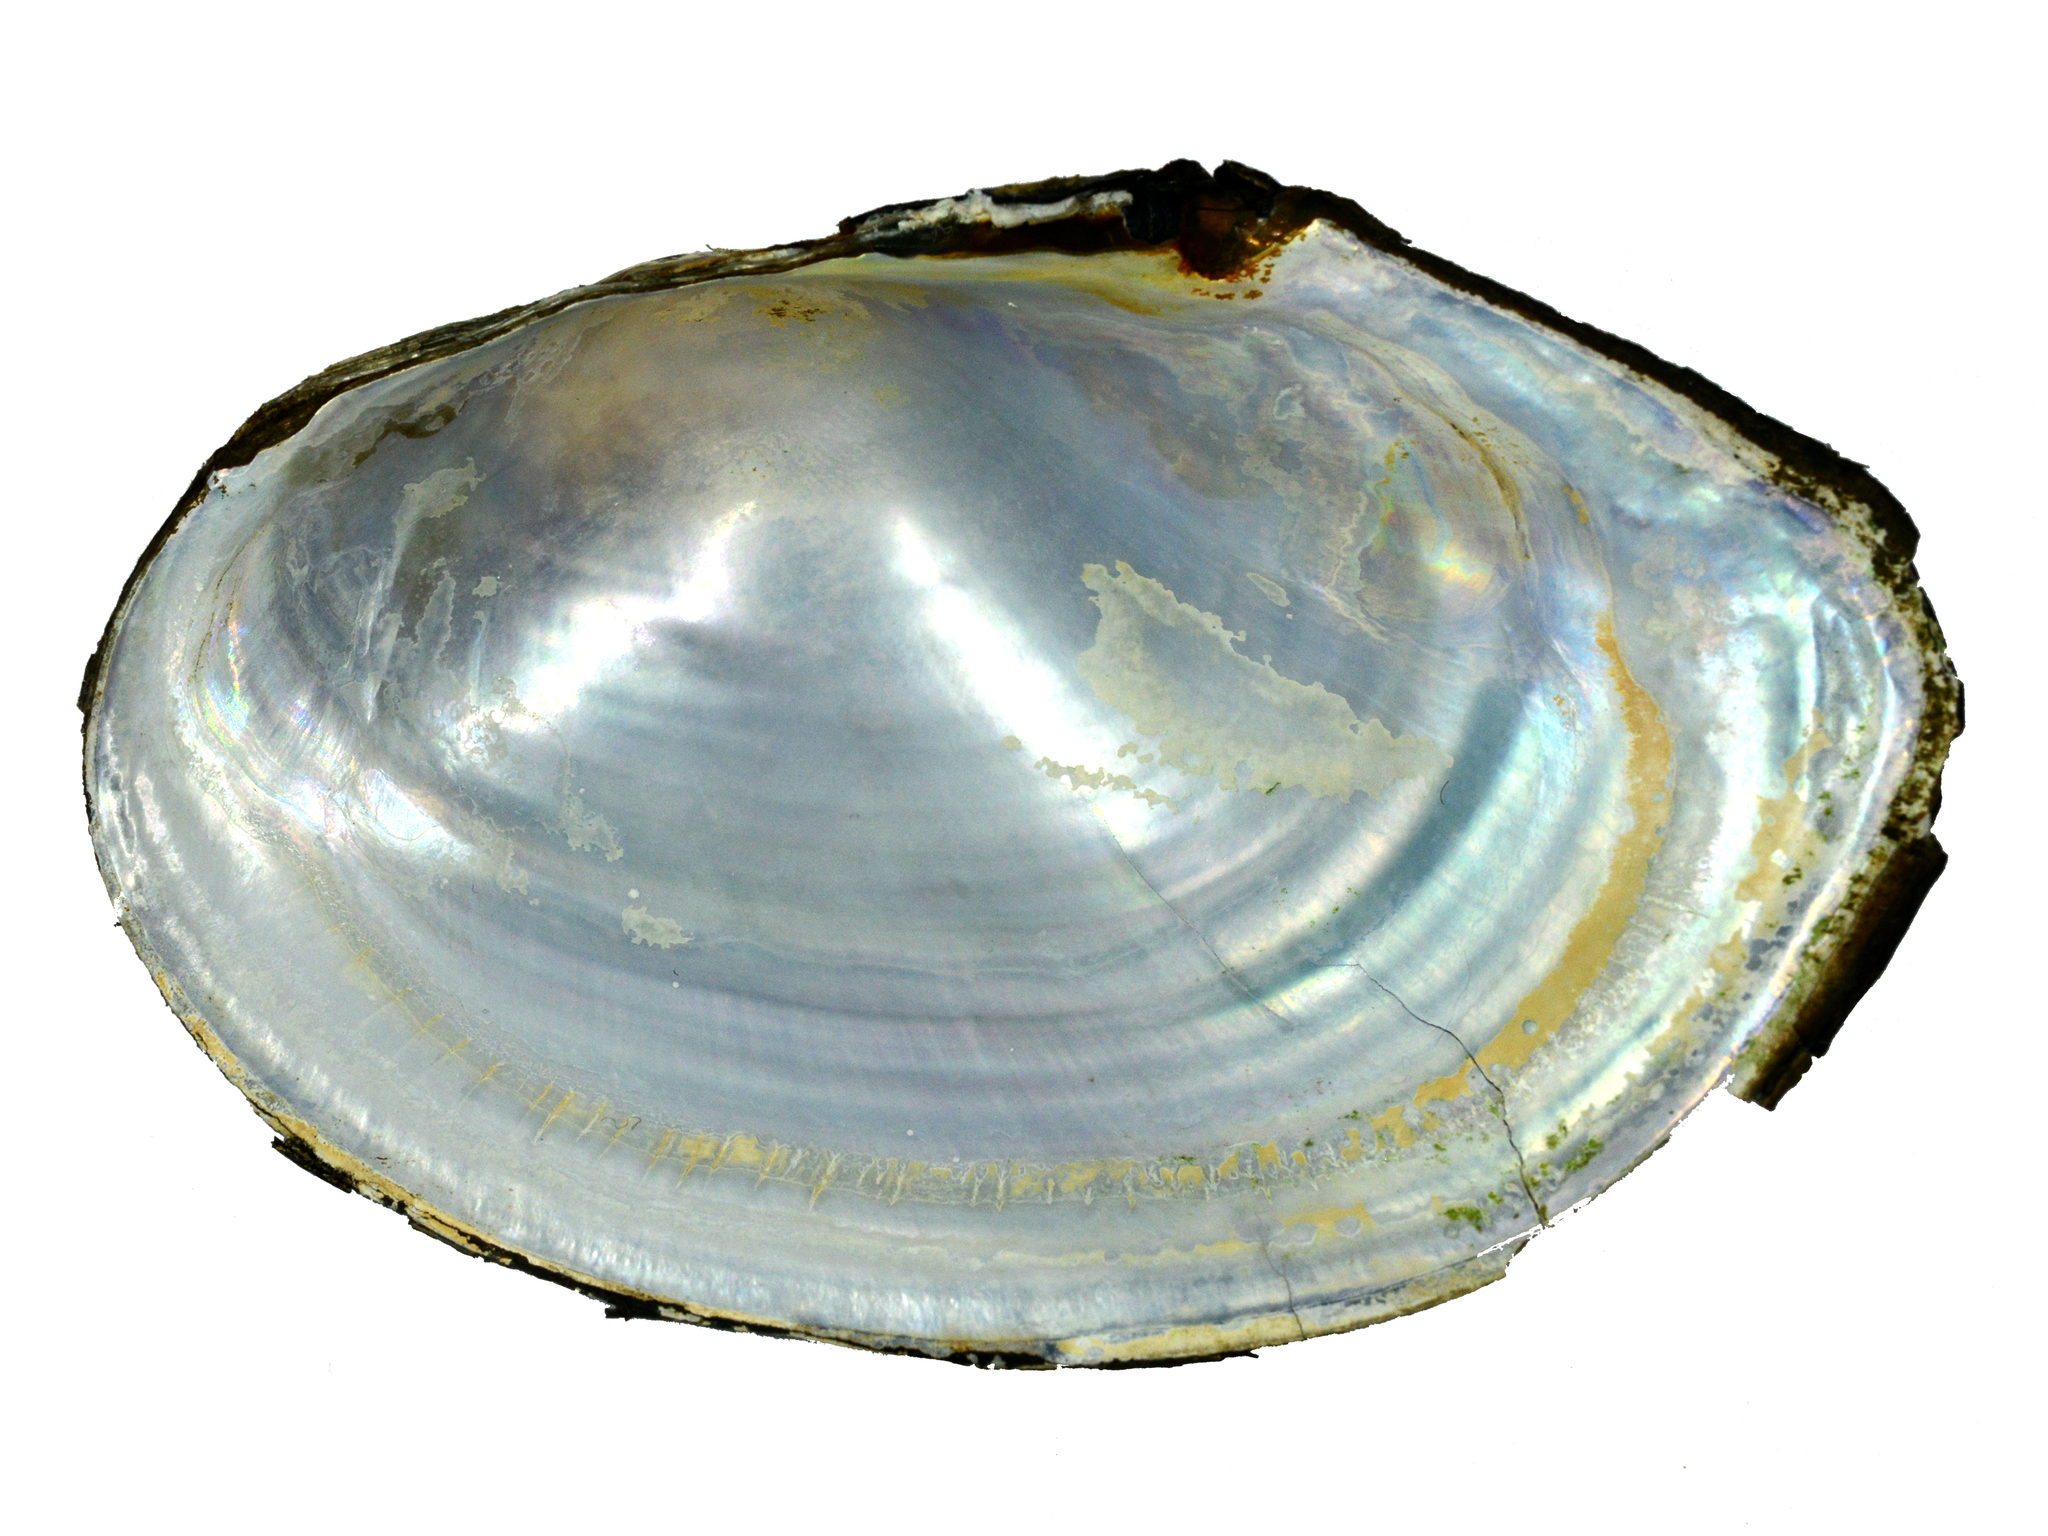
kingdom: Animalia
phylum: Mollusca
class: Bivalvia
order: Unionida
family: Unionidae
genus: Sinanodonta
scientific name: Sinanodonta lauta
